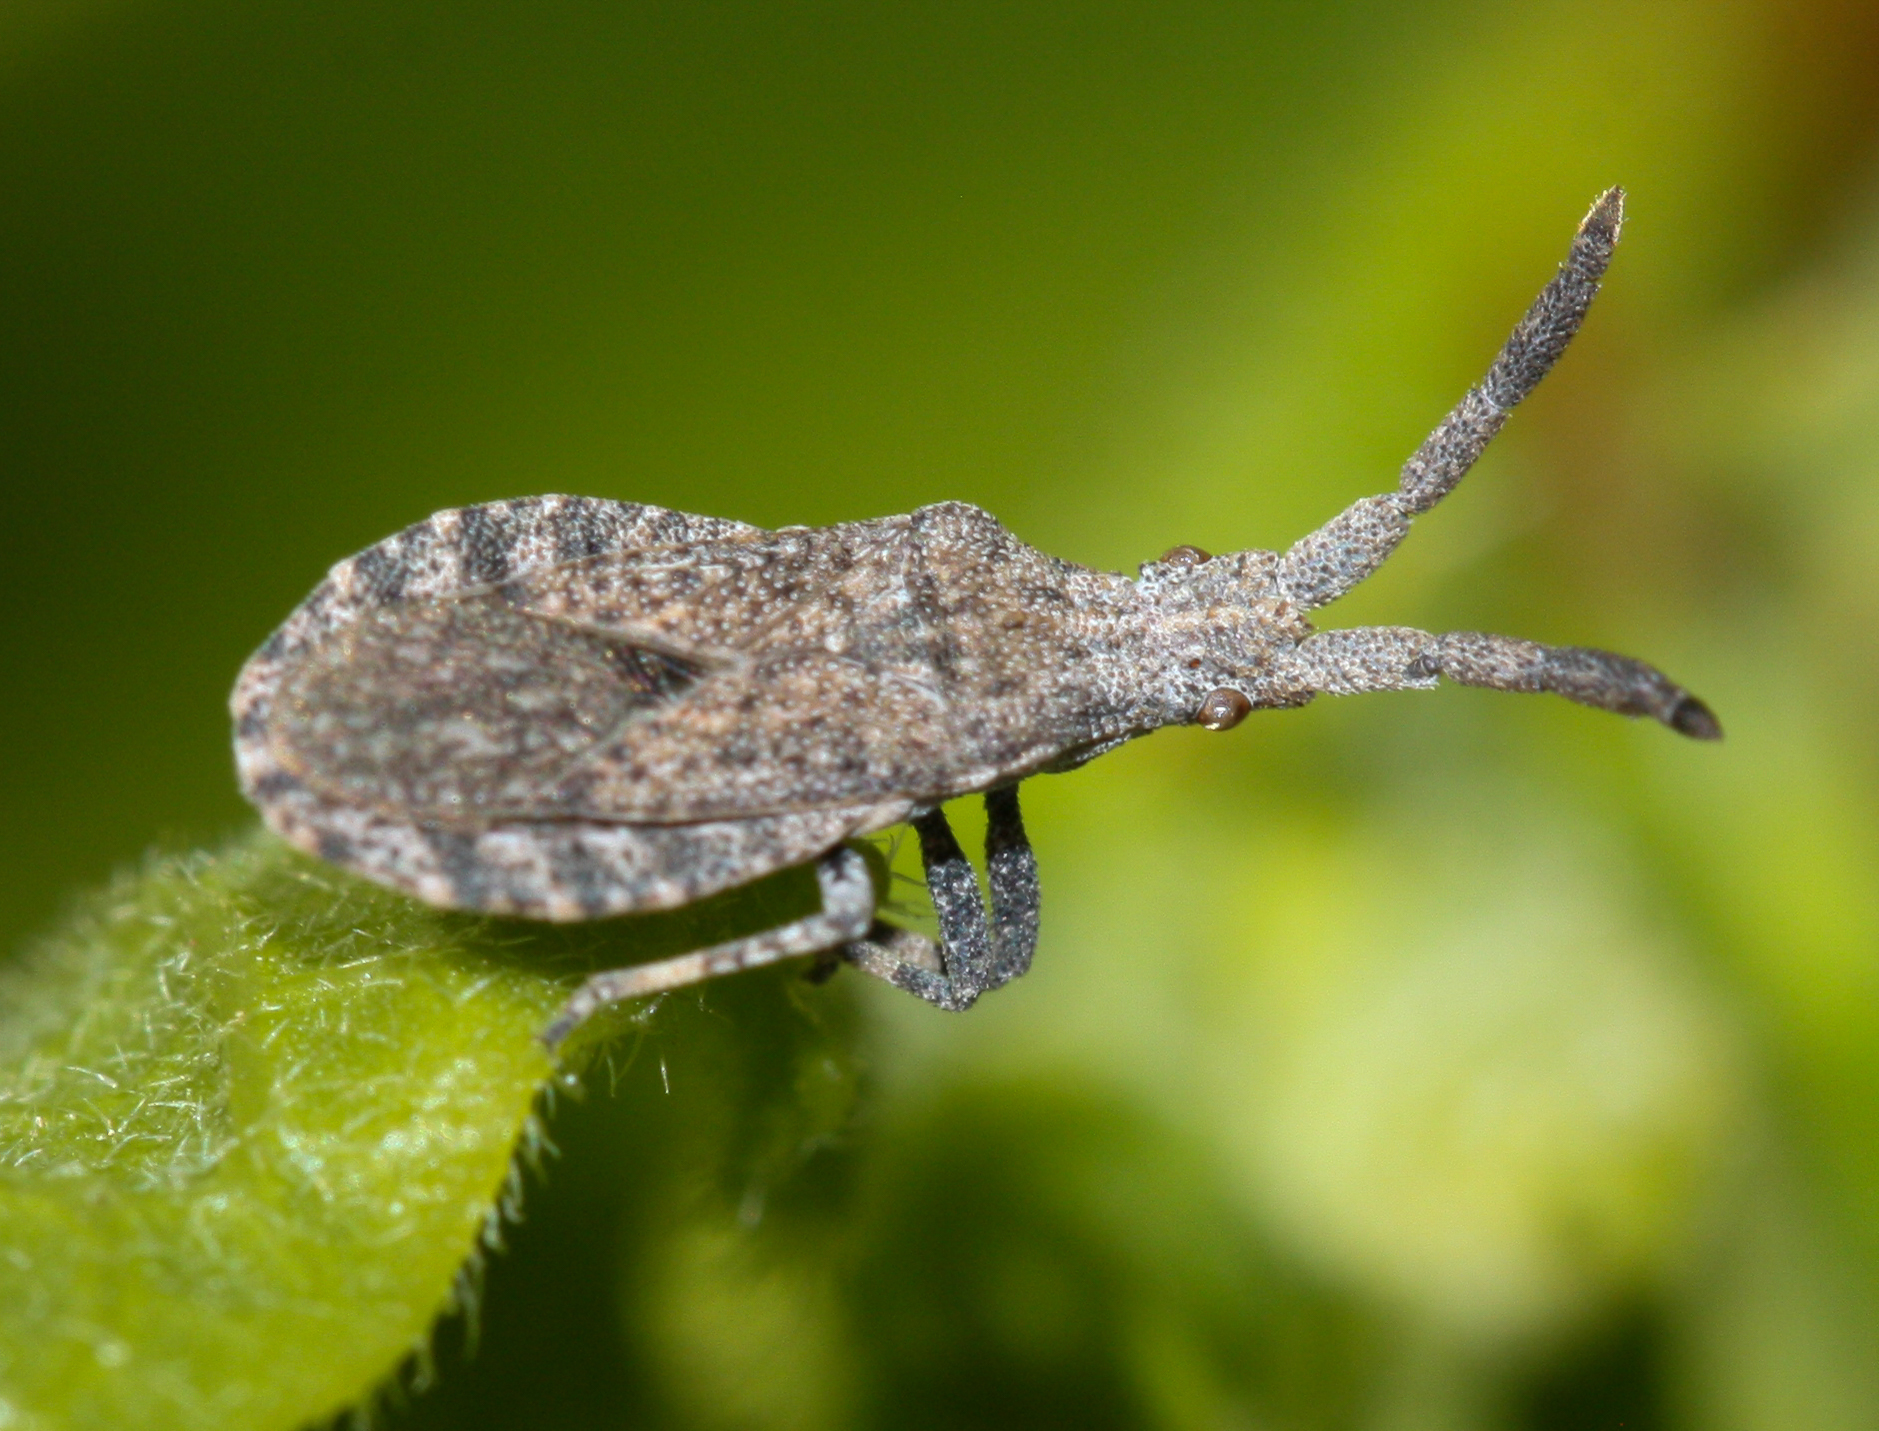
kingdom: Animalia
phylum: Arthropoda
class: Insecta
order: Hemiptera
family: Coreidae
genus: Scolopocerus
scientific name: Scolopocerus secundarius
